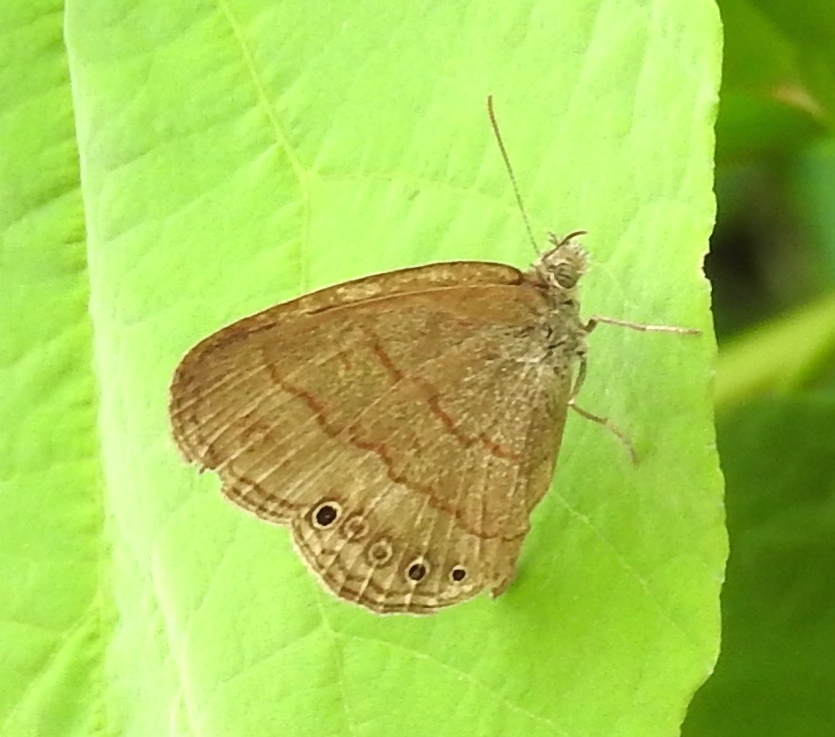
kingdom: Animalia
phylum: Arthropoda
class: Insecta
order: Lepidoptera
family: Nymphalidae
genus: Hermeuptychia
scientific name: Hermeuptychia
